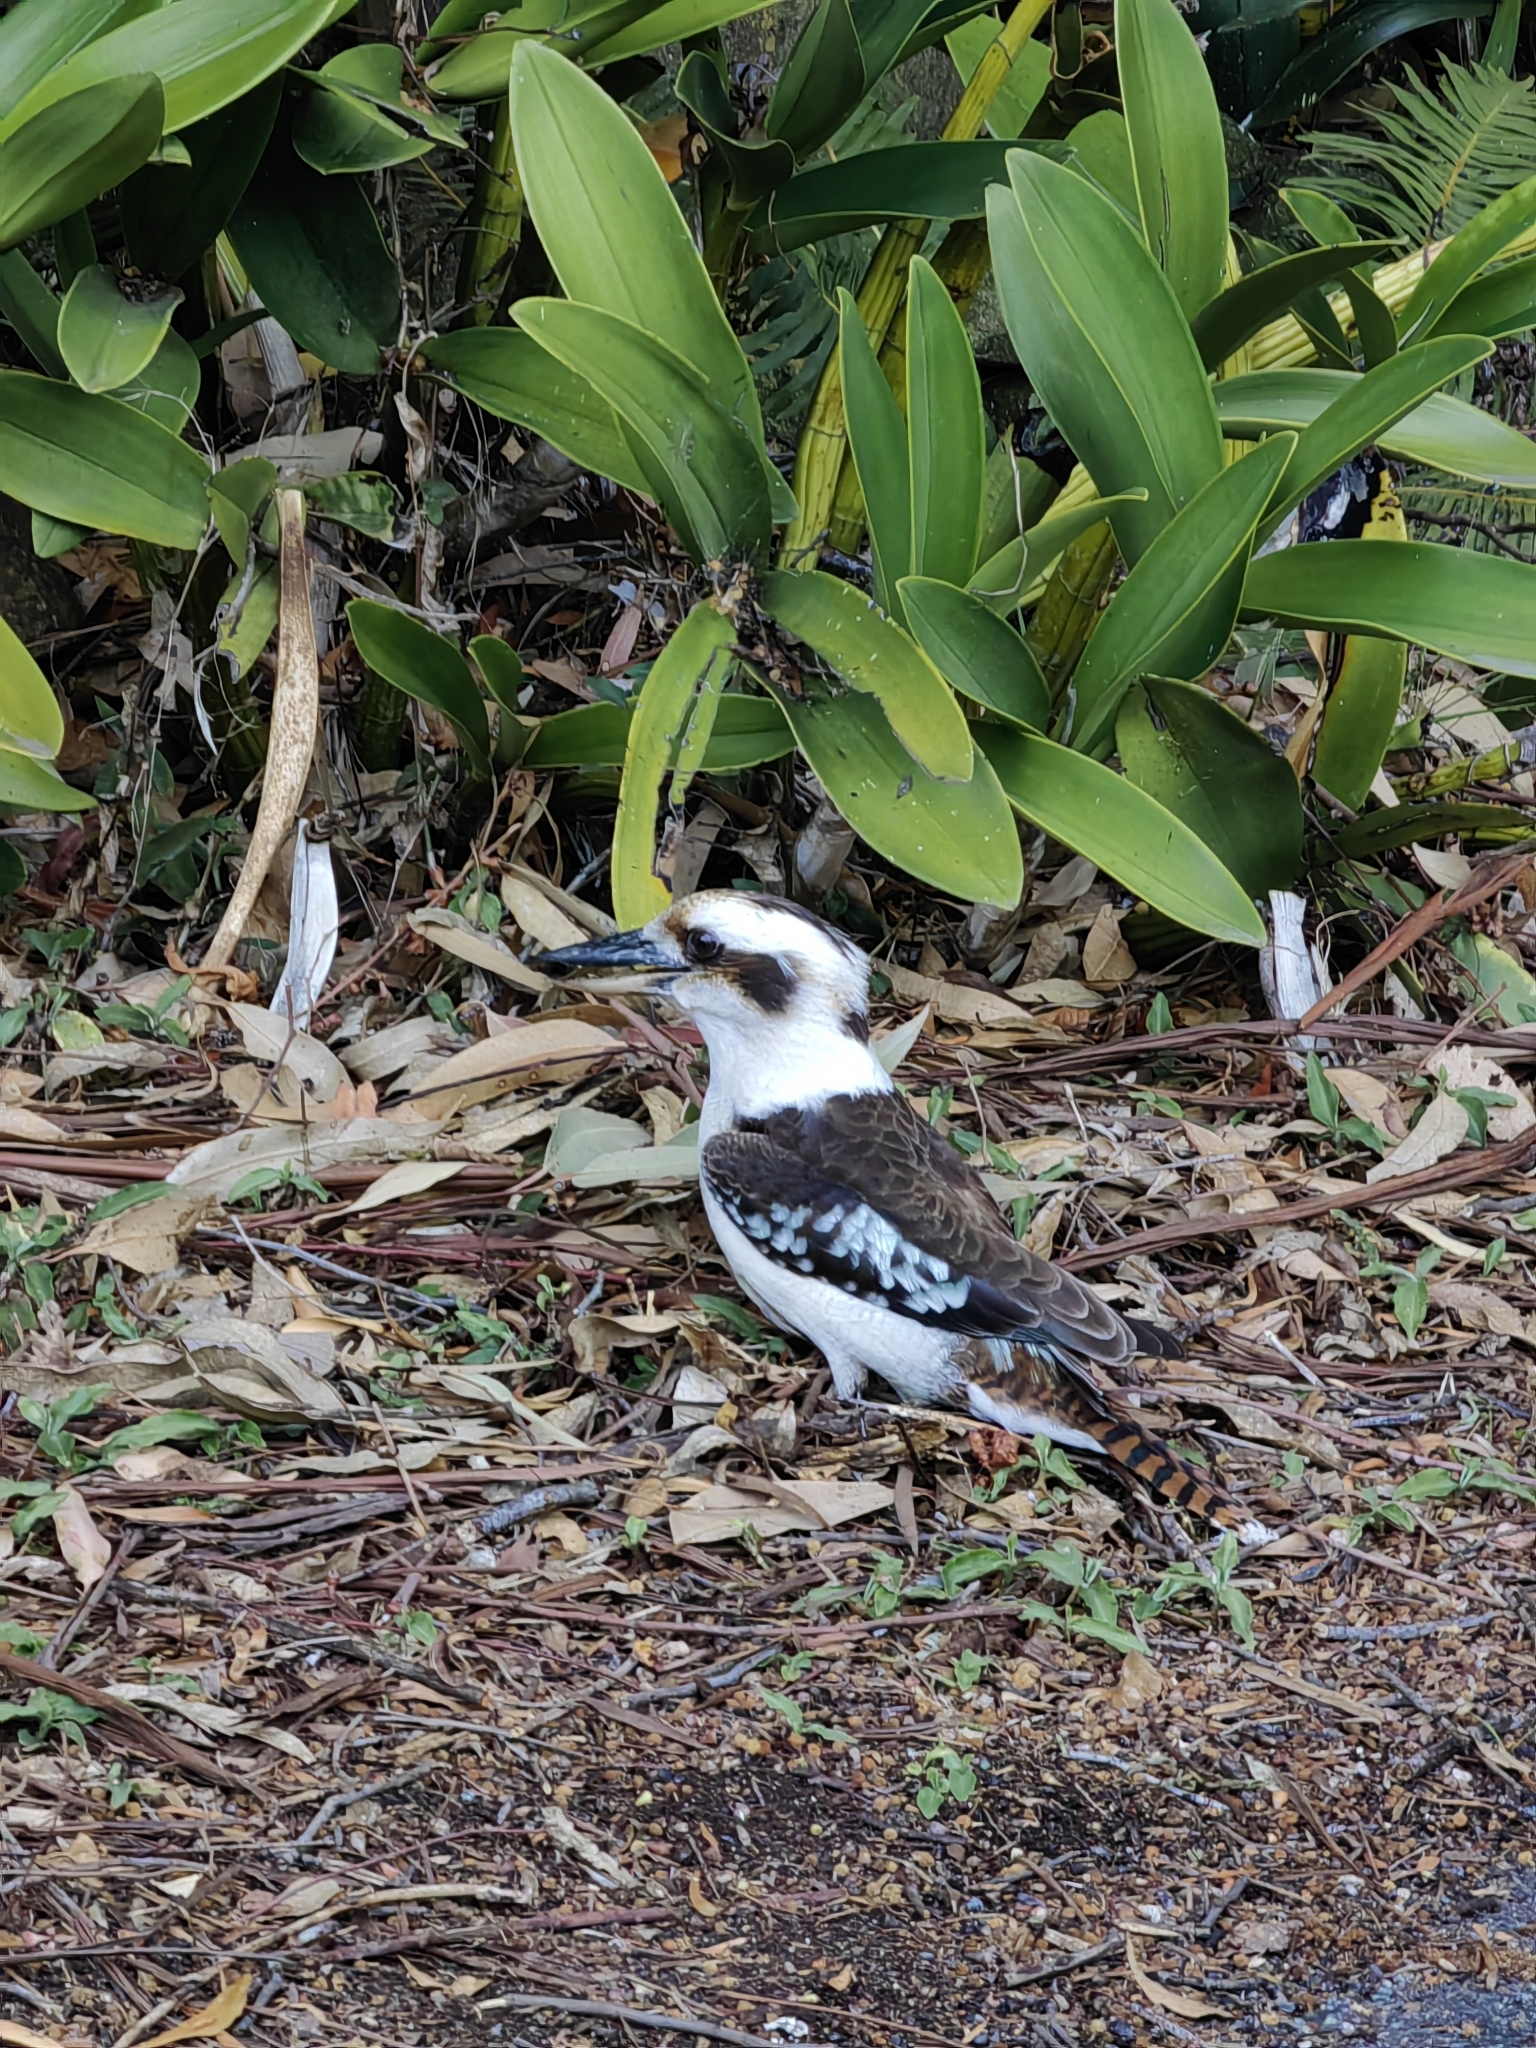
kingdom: Animalia
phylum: Chordata
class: Aves
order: Coraciiformes
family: Alcedinidae
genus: Dacelo
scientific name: Dacelo novaeguineae
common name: Laughing kookaburra
